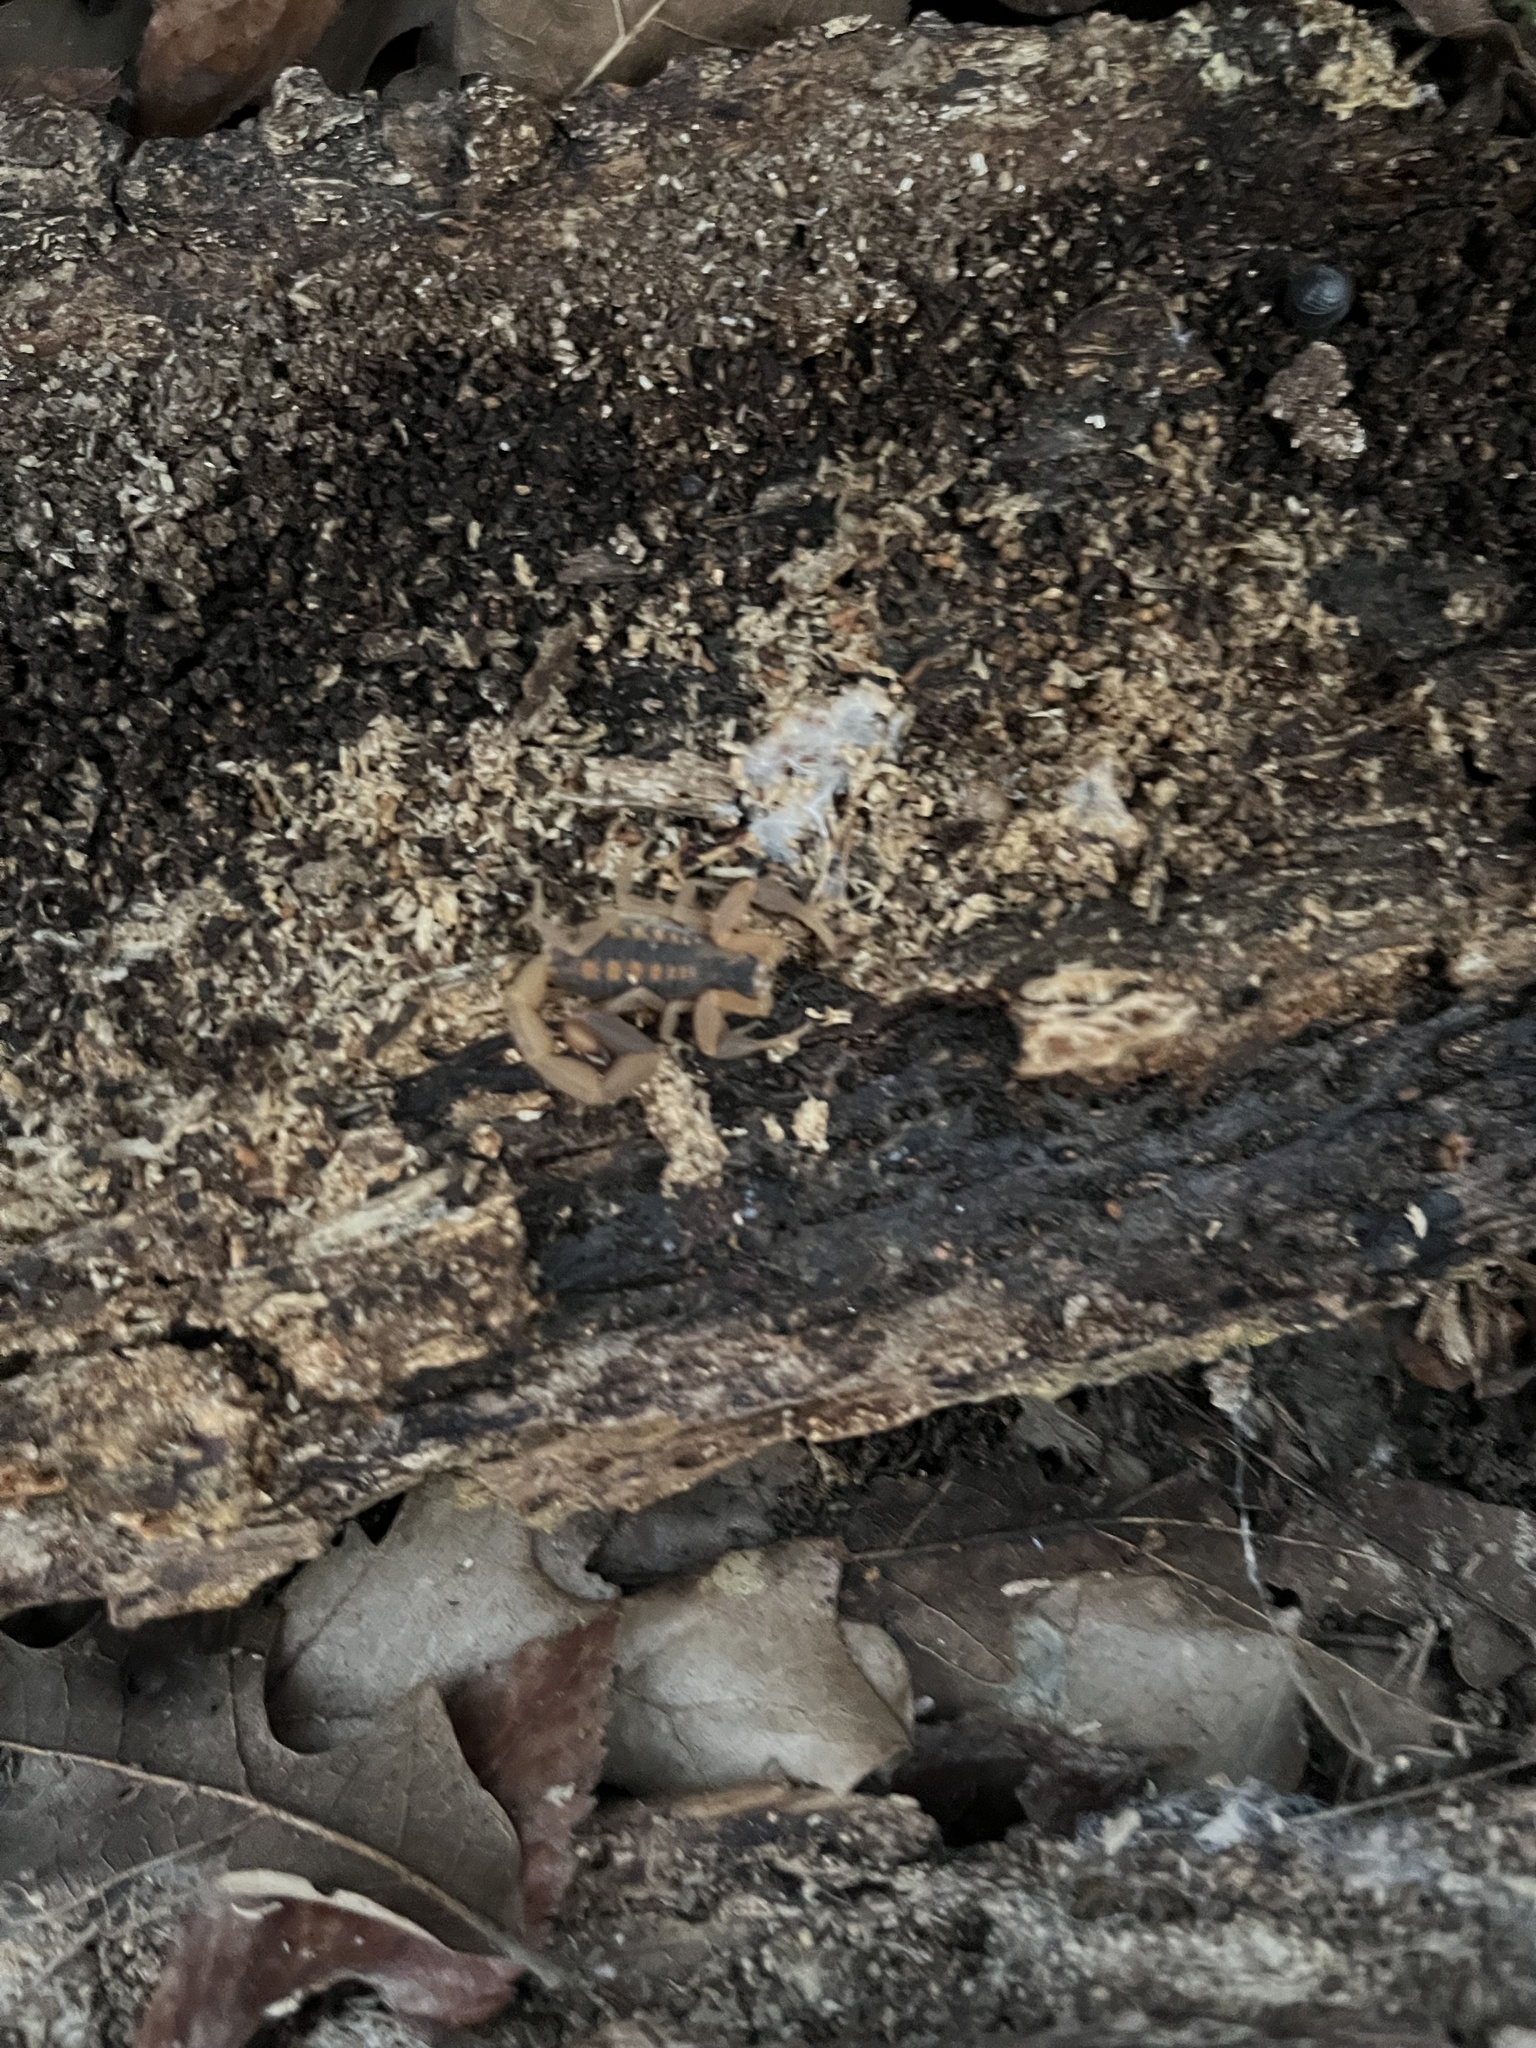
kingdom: Animalia
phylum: Arthropoda
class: Arachnida
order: Scorpiones
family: Buthidae
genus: Centruroides
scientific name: Centruroides vittatus
